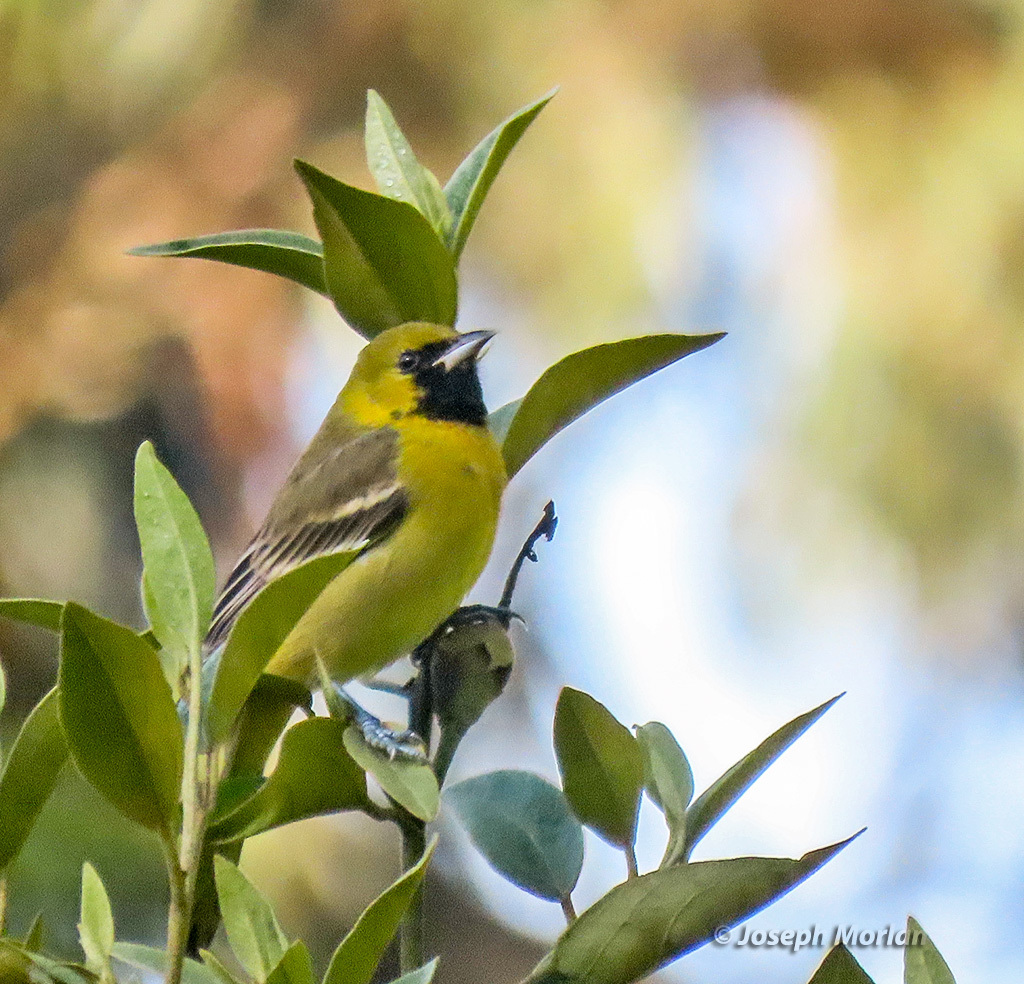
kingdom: Animalia
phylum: Chordata
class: Aves
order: Passeriformes
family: Icteridae
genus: Icterus
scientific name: Icterus spurius
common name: Orchard oriole
